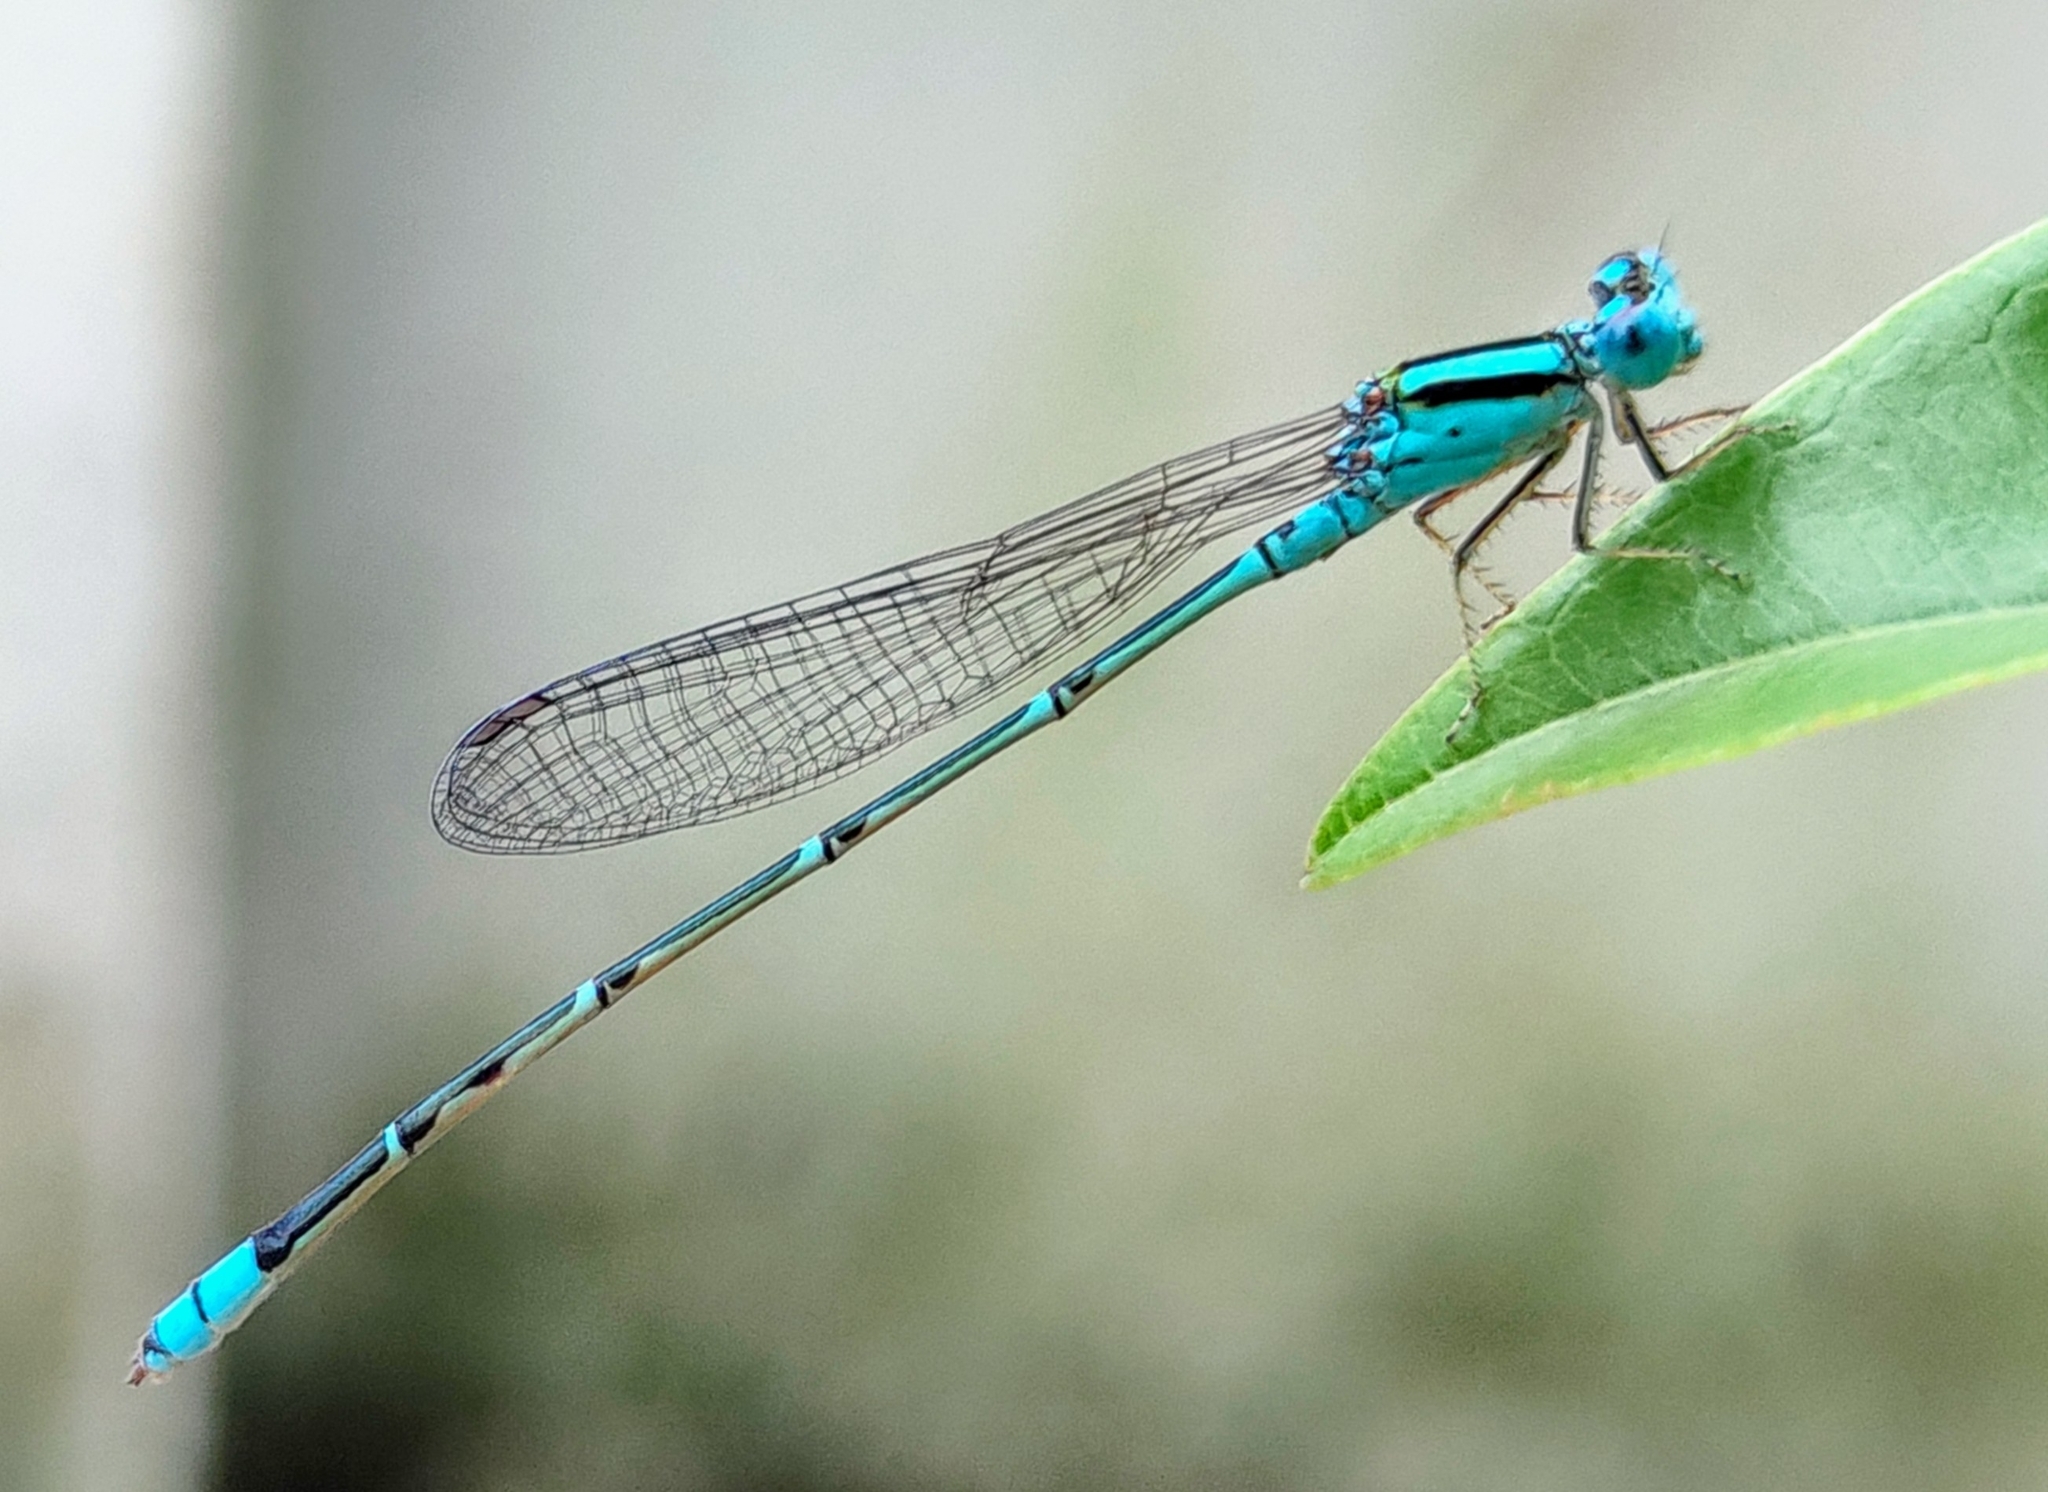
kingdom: Animalia
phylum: Arthropoda
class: Insecta
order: Odonata
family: Coenagrionidae
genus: Pseudagrion
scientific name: Pseudagrion microcephalum
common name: Blue riverdamsel
